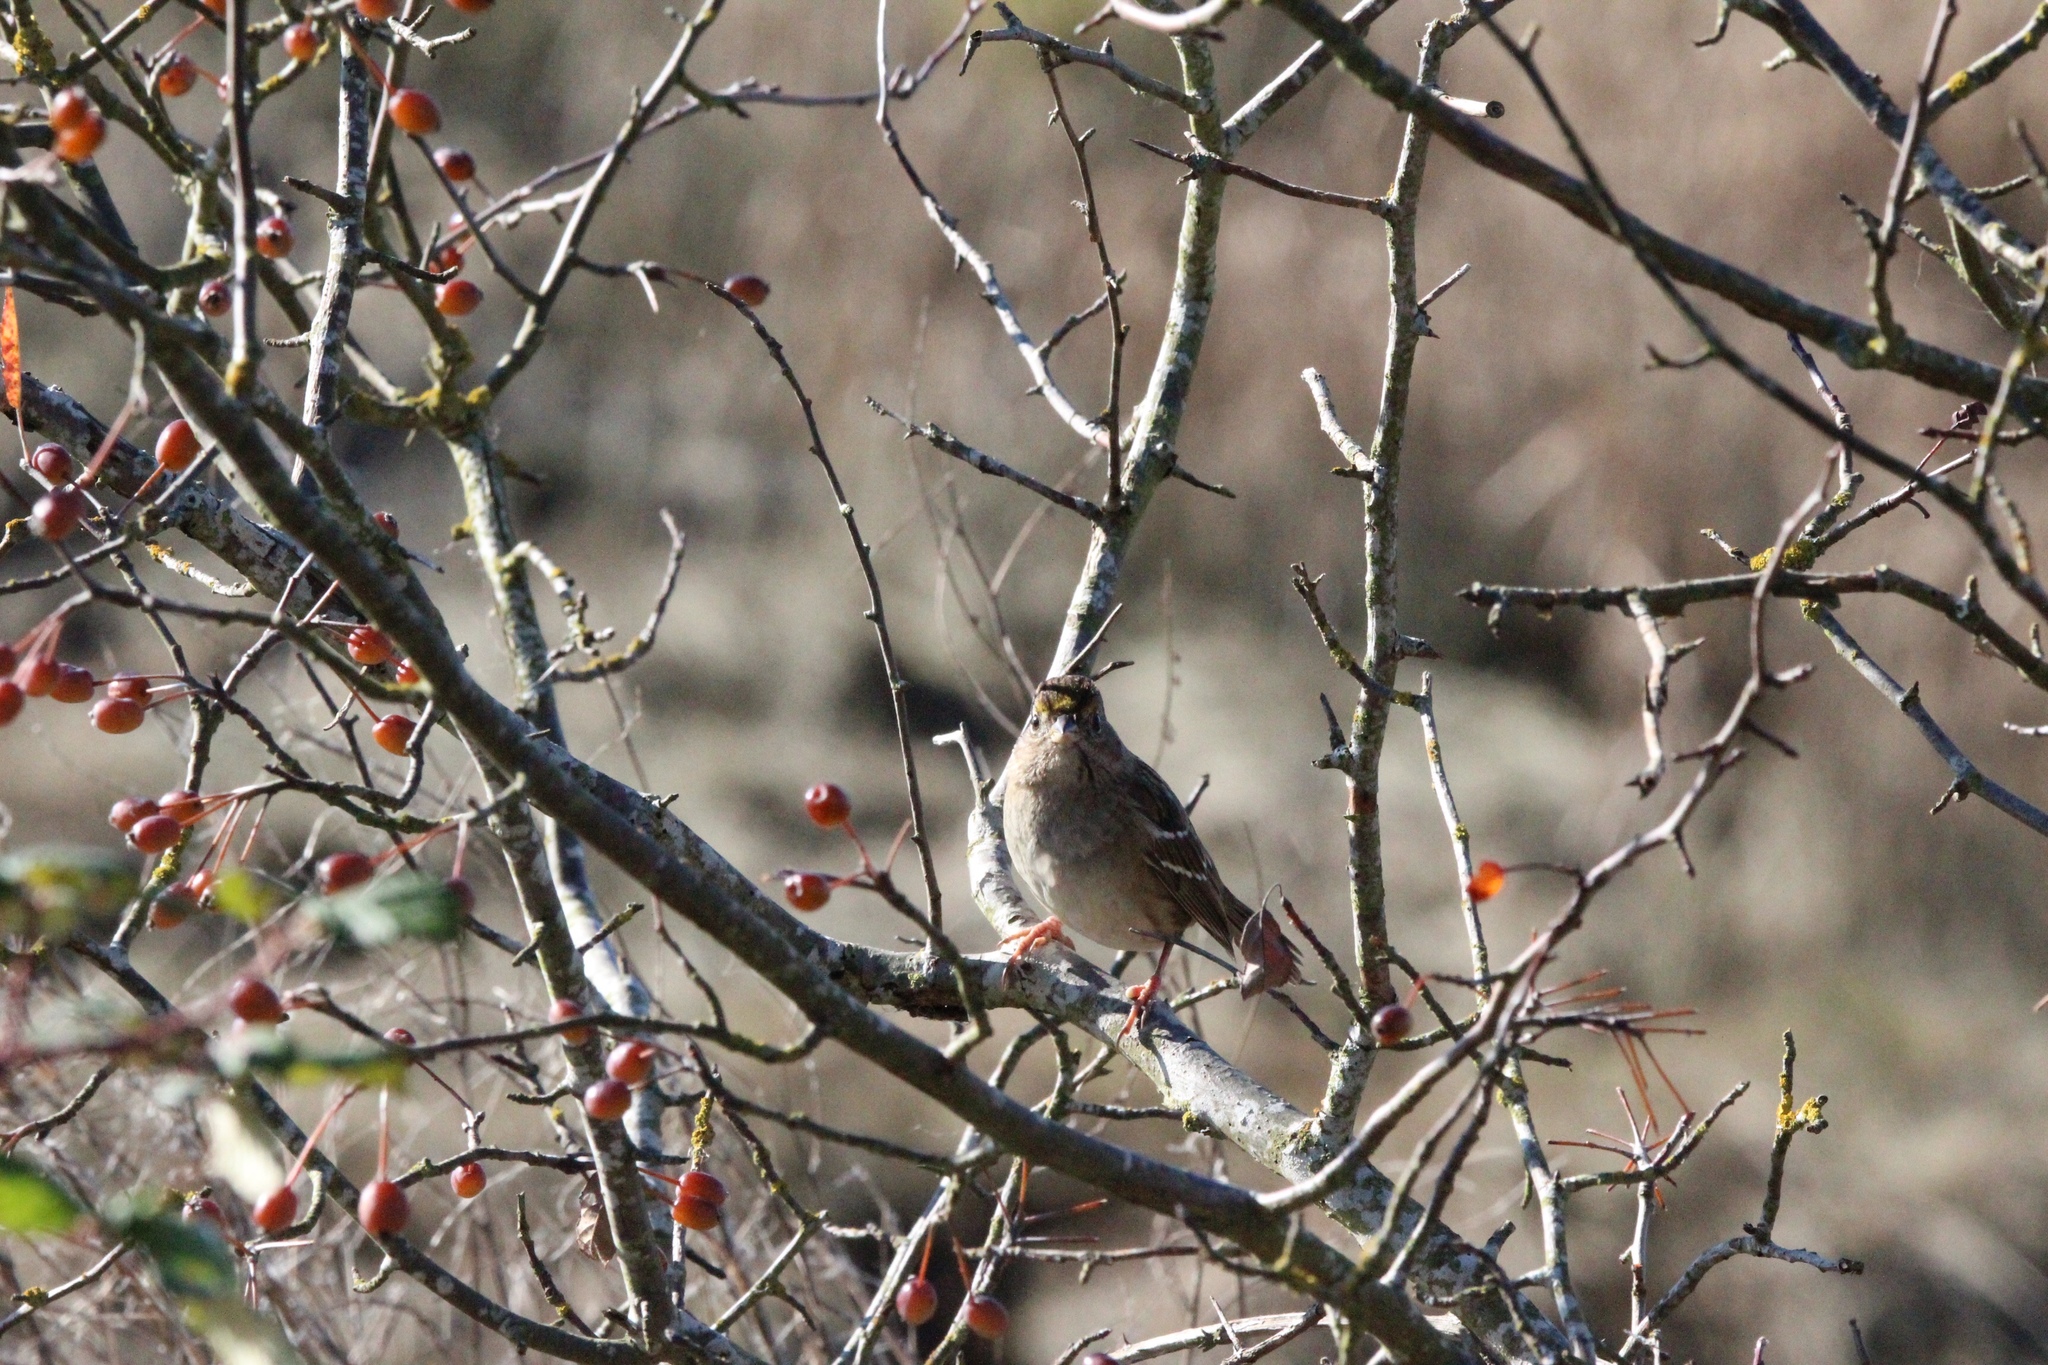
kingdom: Animalia
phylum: Chordata
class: Aves
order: Passeriformes
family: Passerellidae
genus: Zonotrichia
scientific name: Zonotrichia atricapilla
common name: Golden-crowned sparrow
